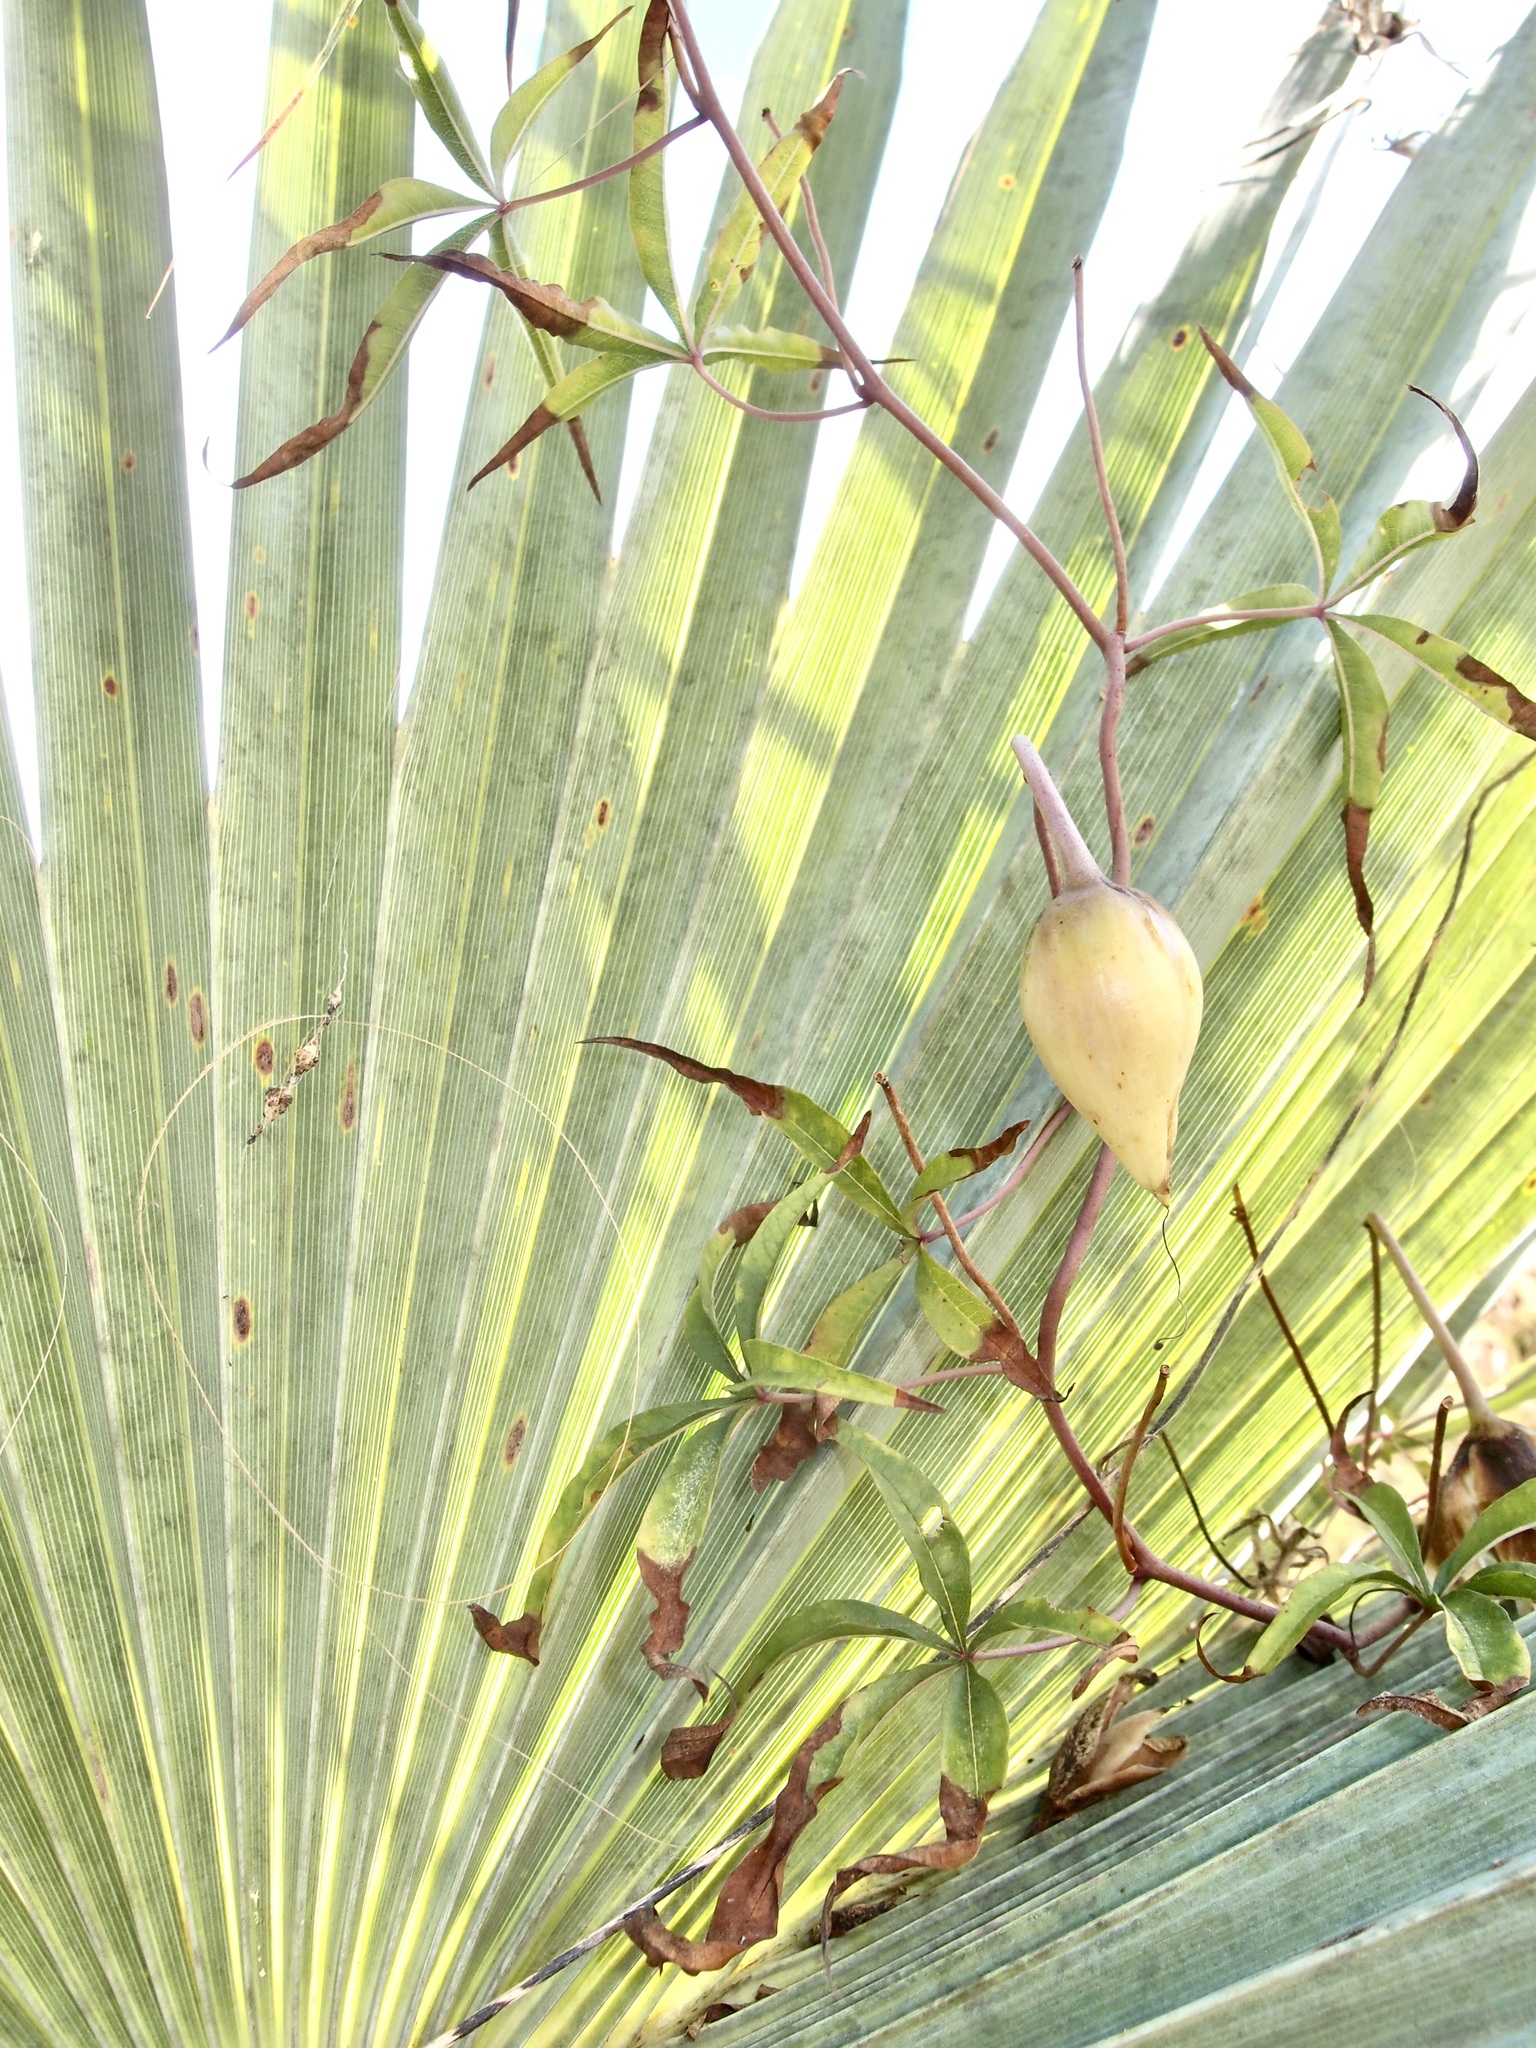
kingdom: Plantae
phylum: Tracheophyta
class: Magnoliopsida
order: Solanales
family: Convolvulaceae
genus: Distimake
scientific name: Distimake palmeri
